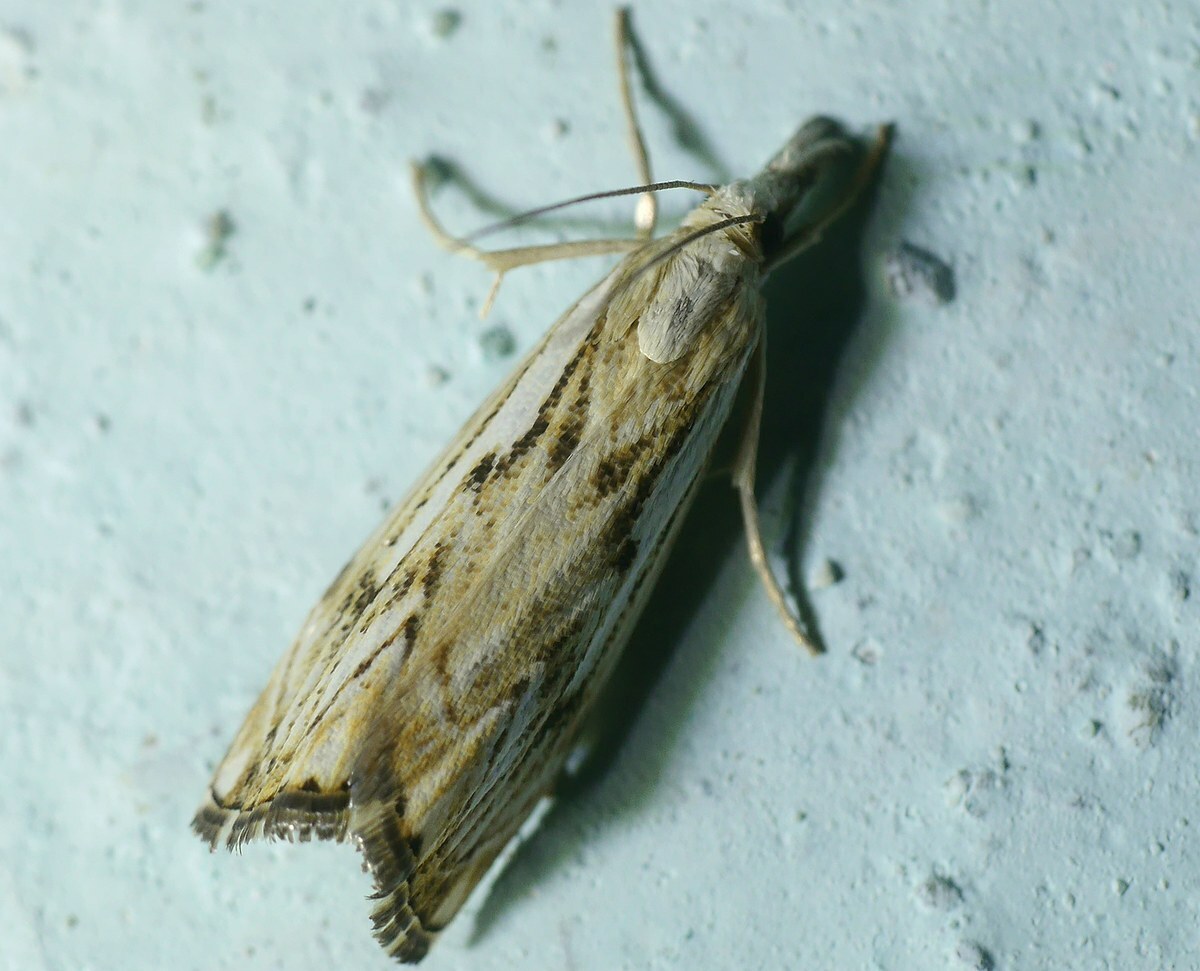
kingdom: Animalia
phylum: Arthropoda
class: Insecta
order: Lepidoptera
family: Crambidae
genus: Catoptria
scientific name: Catoptria falsella
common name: Chequered grass-veneer
